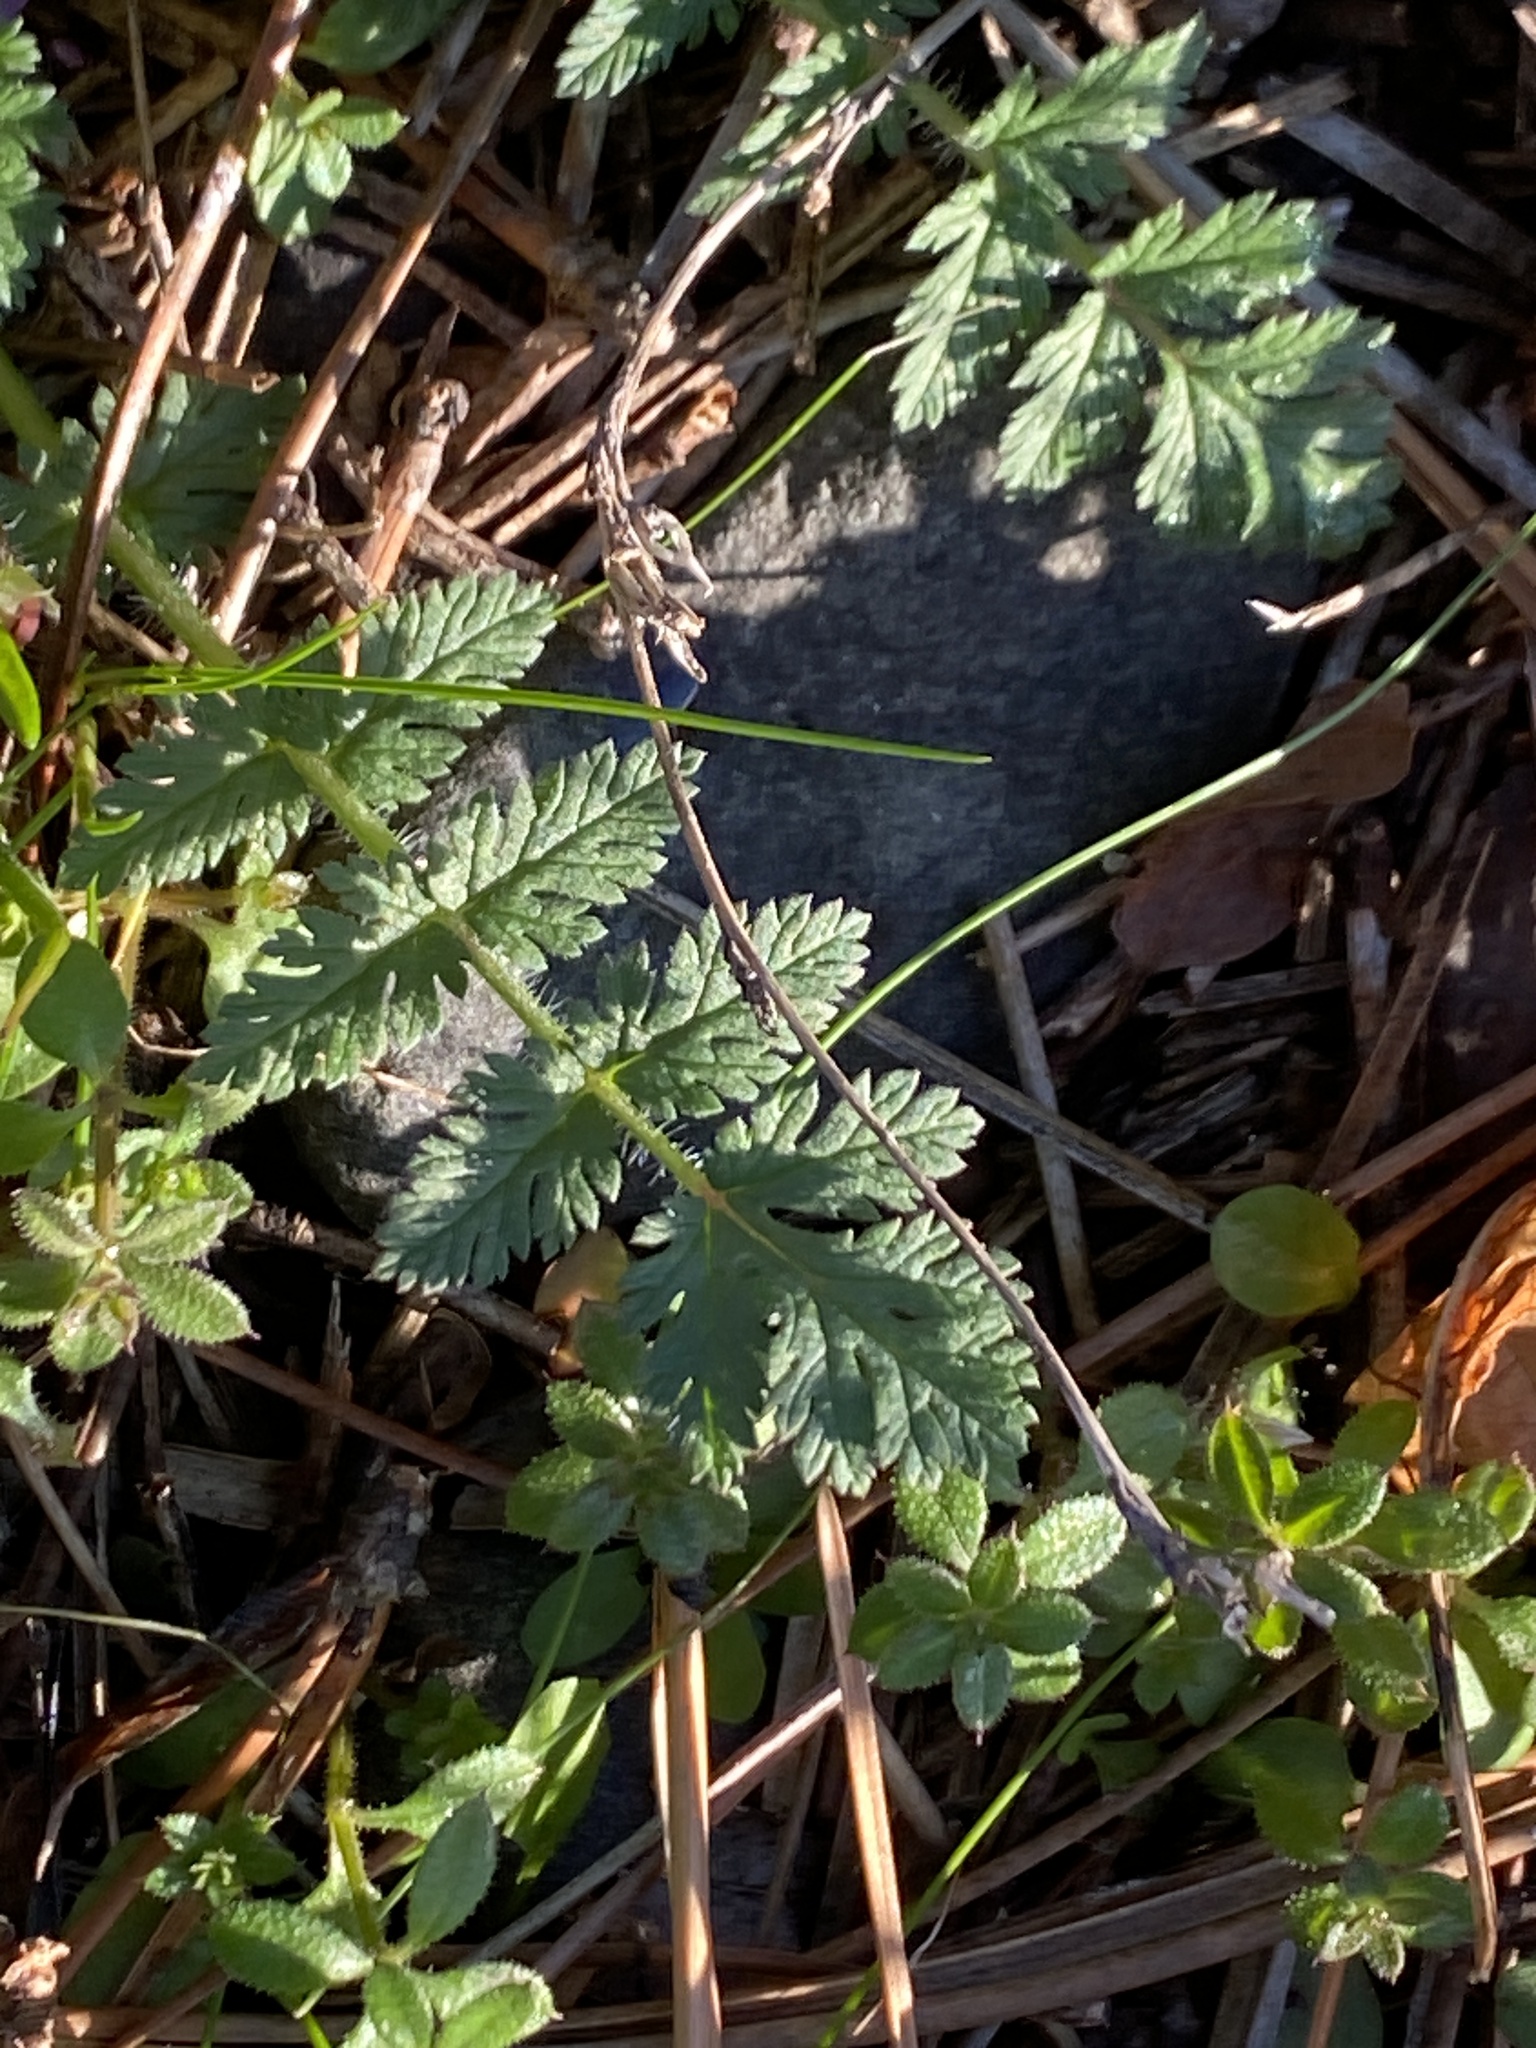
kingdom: Plantae
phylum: Tracheophyta
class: Magnoliopsida
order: Geraniales
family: Geraniaceae
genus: Erodium
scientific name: Erodium cicutarium
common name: Common stork's-bill
